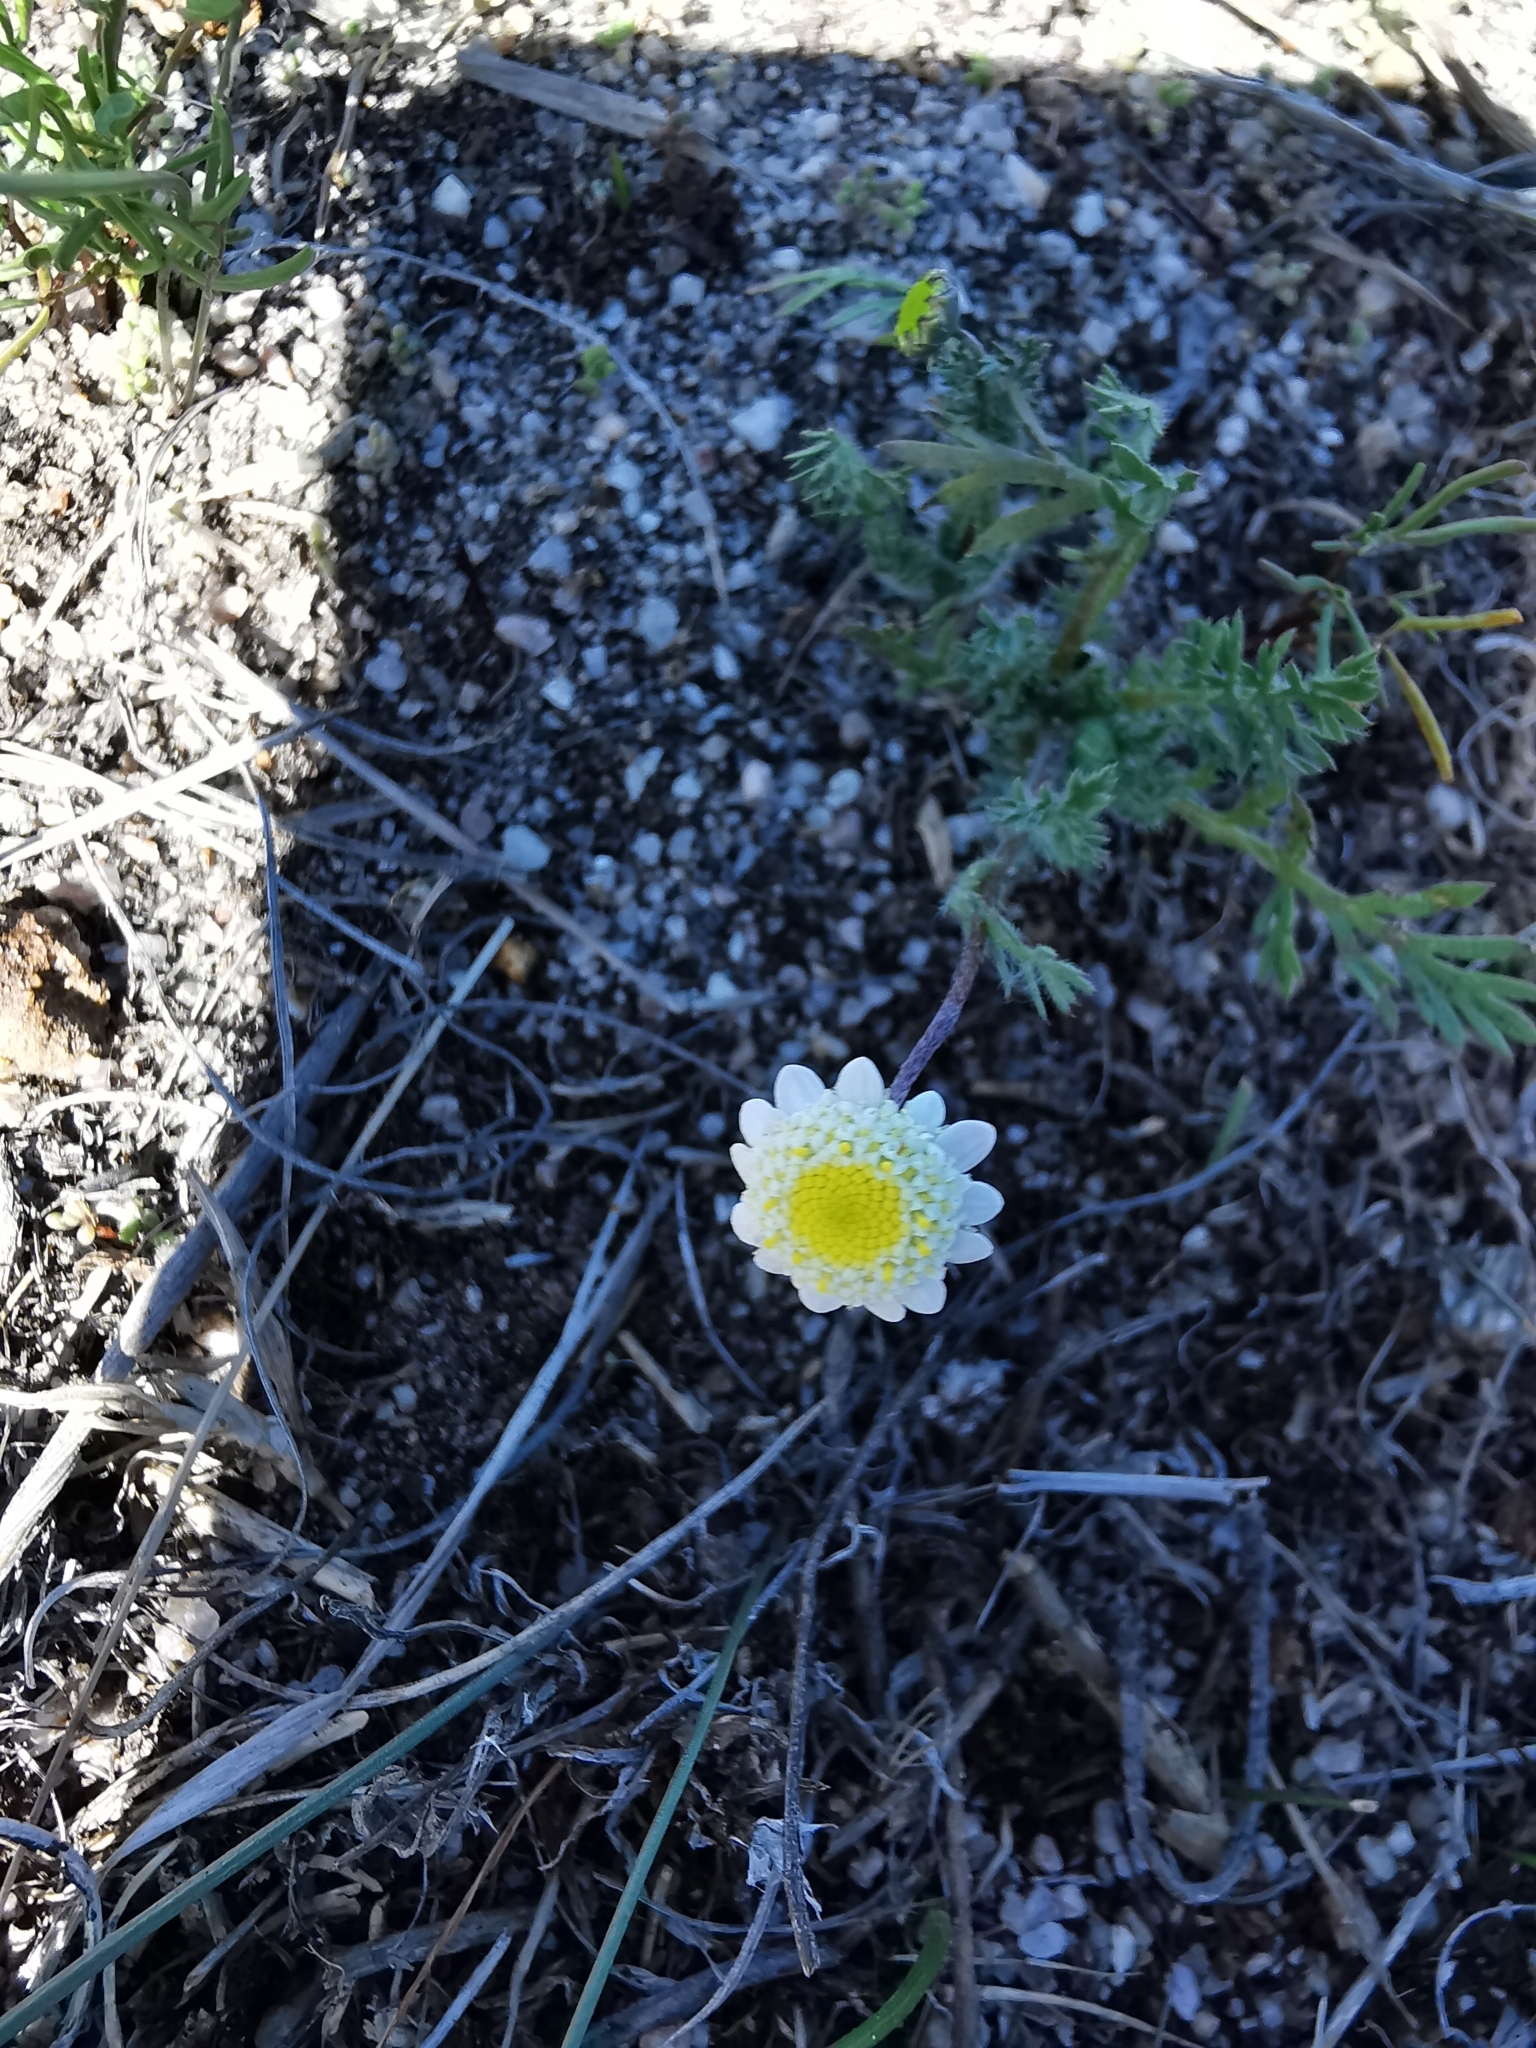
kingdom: Plantae
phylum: Tracheophyta
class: Magnoliopsida
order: Asterales
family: Asteraceae
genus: Cotula
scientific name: Cotula turbinata
